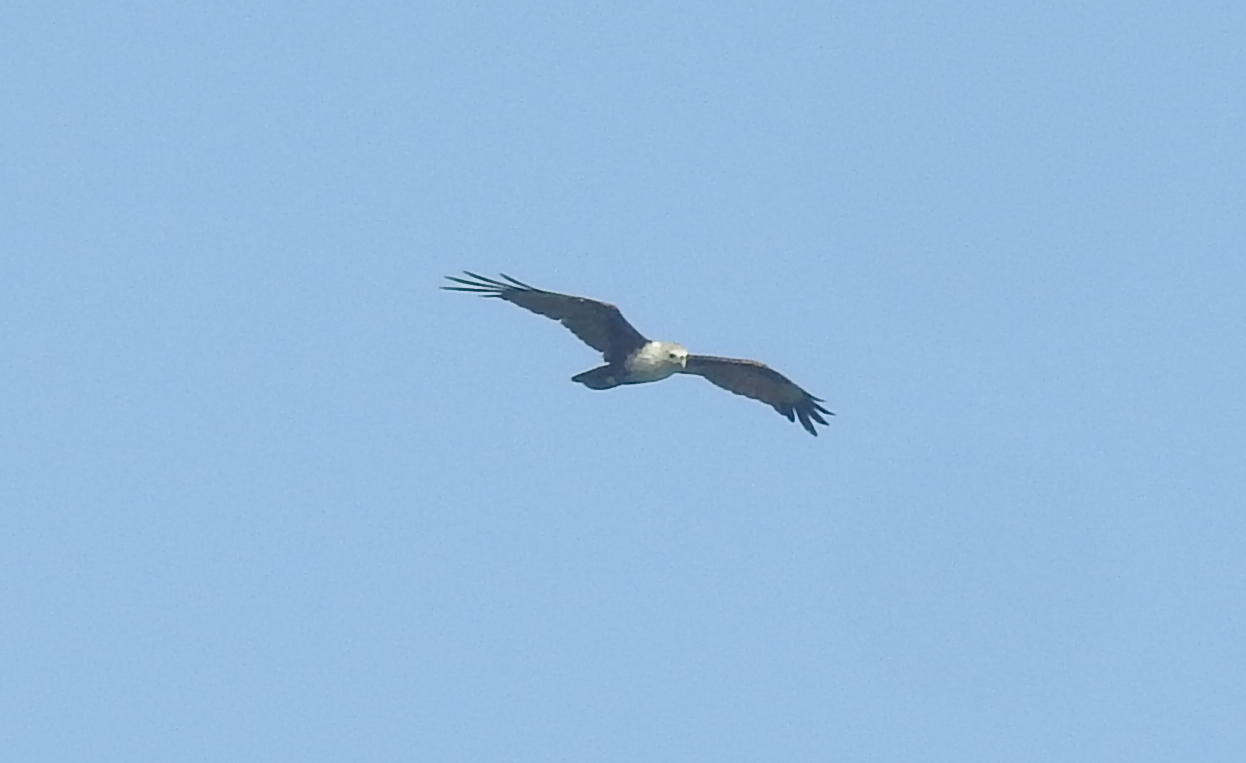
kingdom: Animalia
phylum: Chordata
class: Aves
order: Accipitriformes
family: Accipitridae
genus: Haliastur
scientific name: Haliastur indus
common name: Brahminy kite
